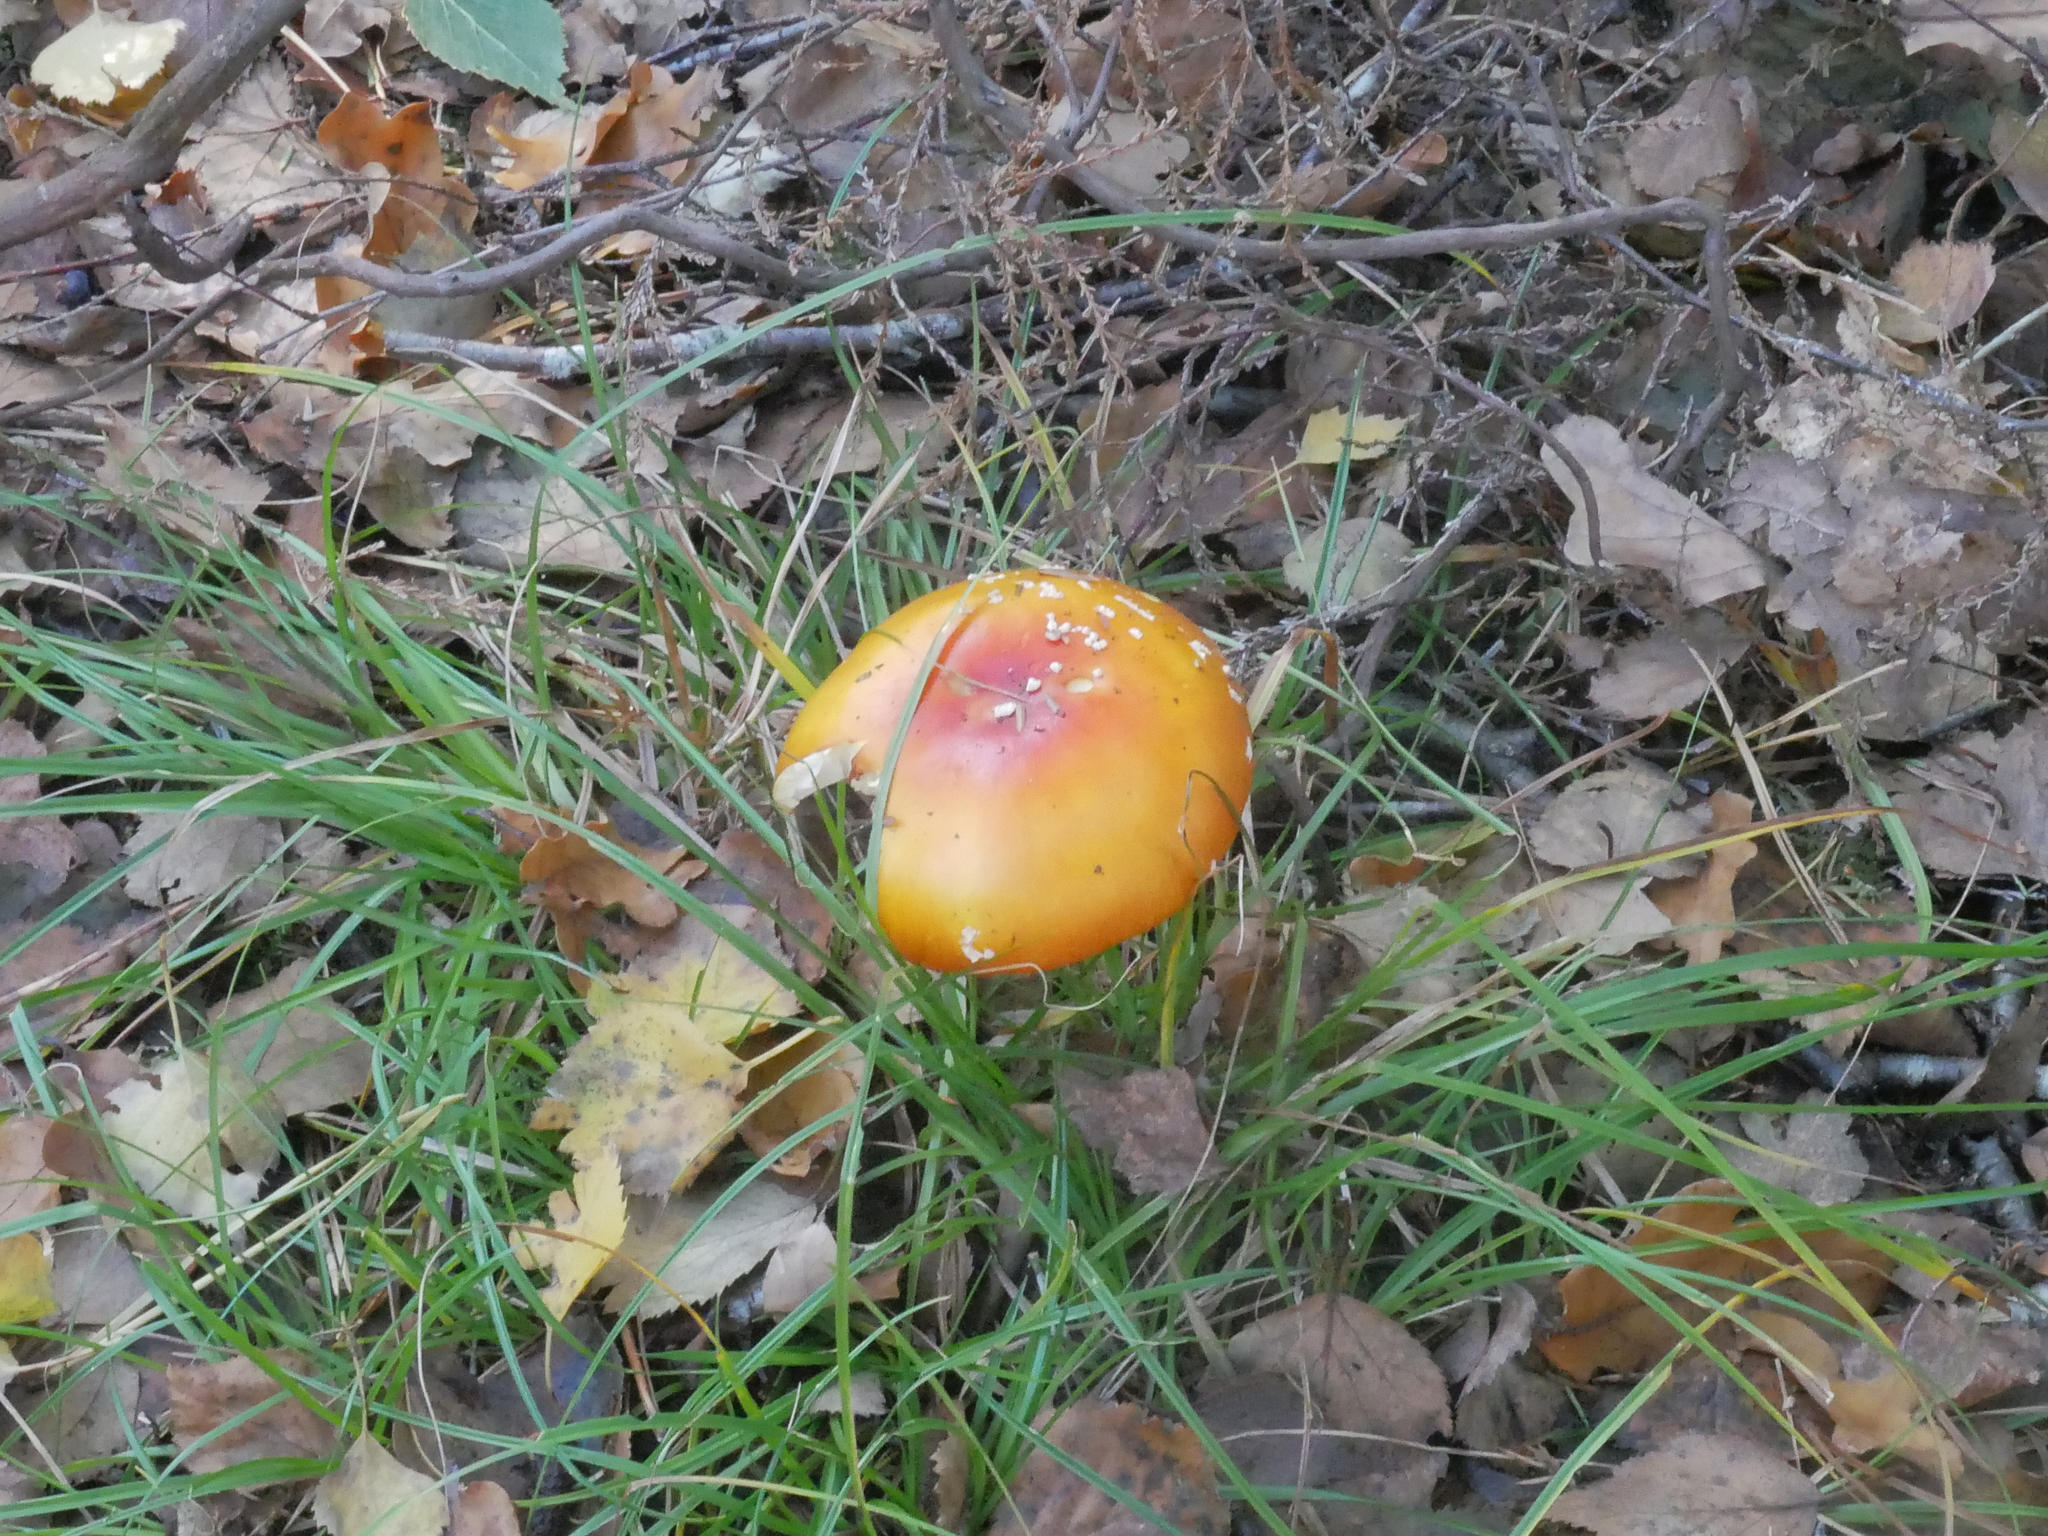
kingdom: Fungi
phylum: Basidiomycota
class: Agaricomycetes
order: Agaricales
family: Amanitaceae
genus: Amanita
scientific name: Amanita muscaria
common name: Fly agaric
